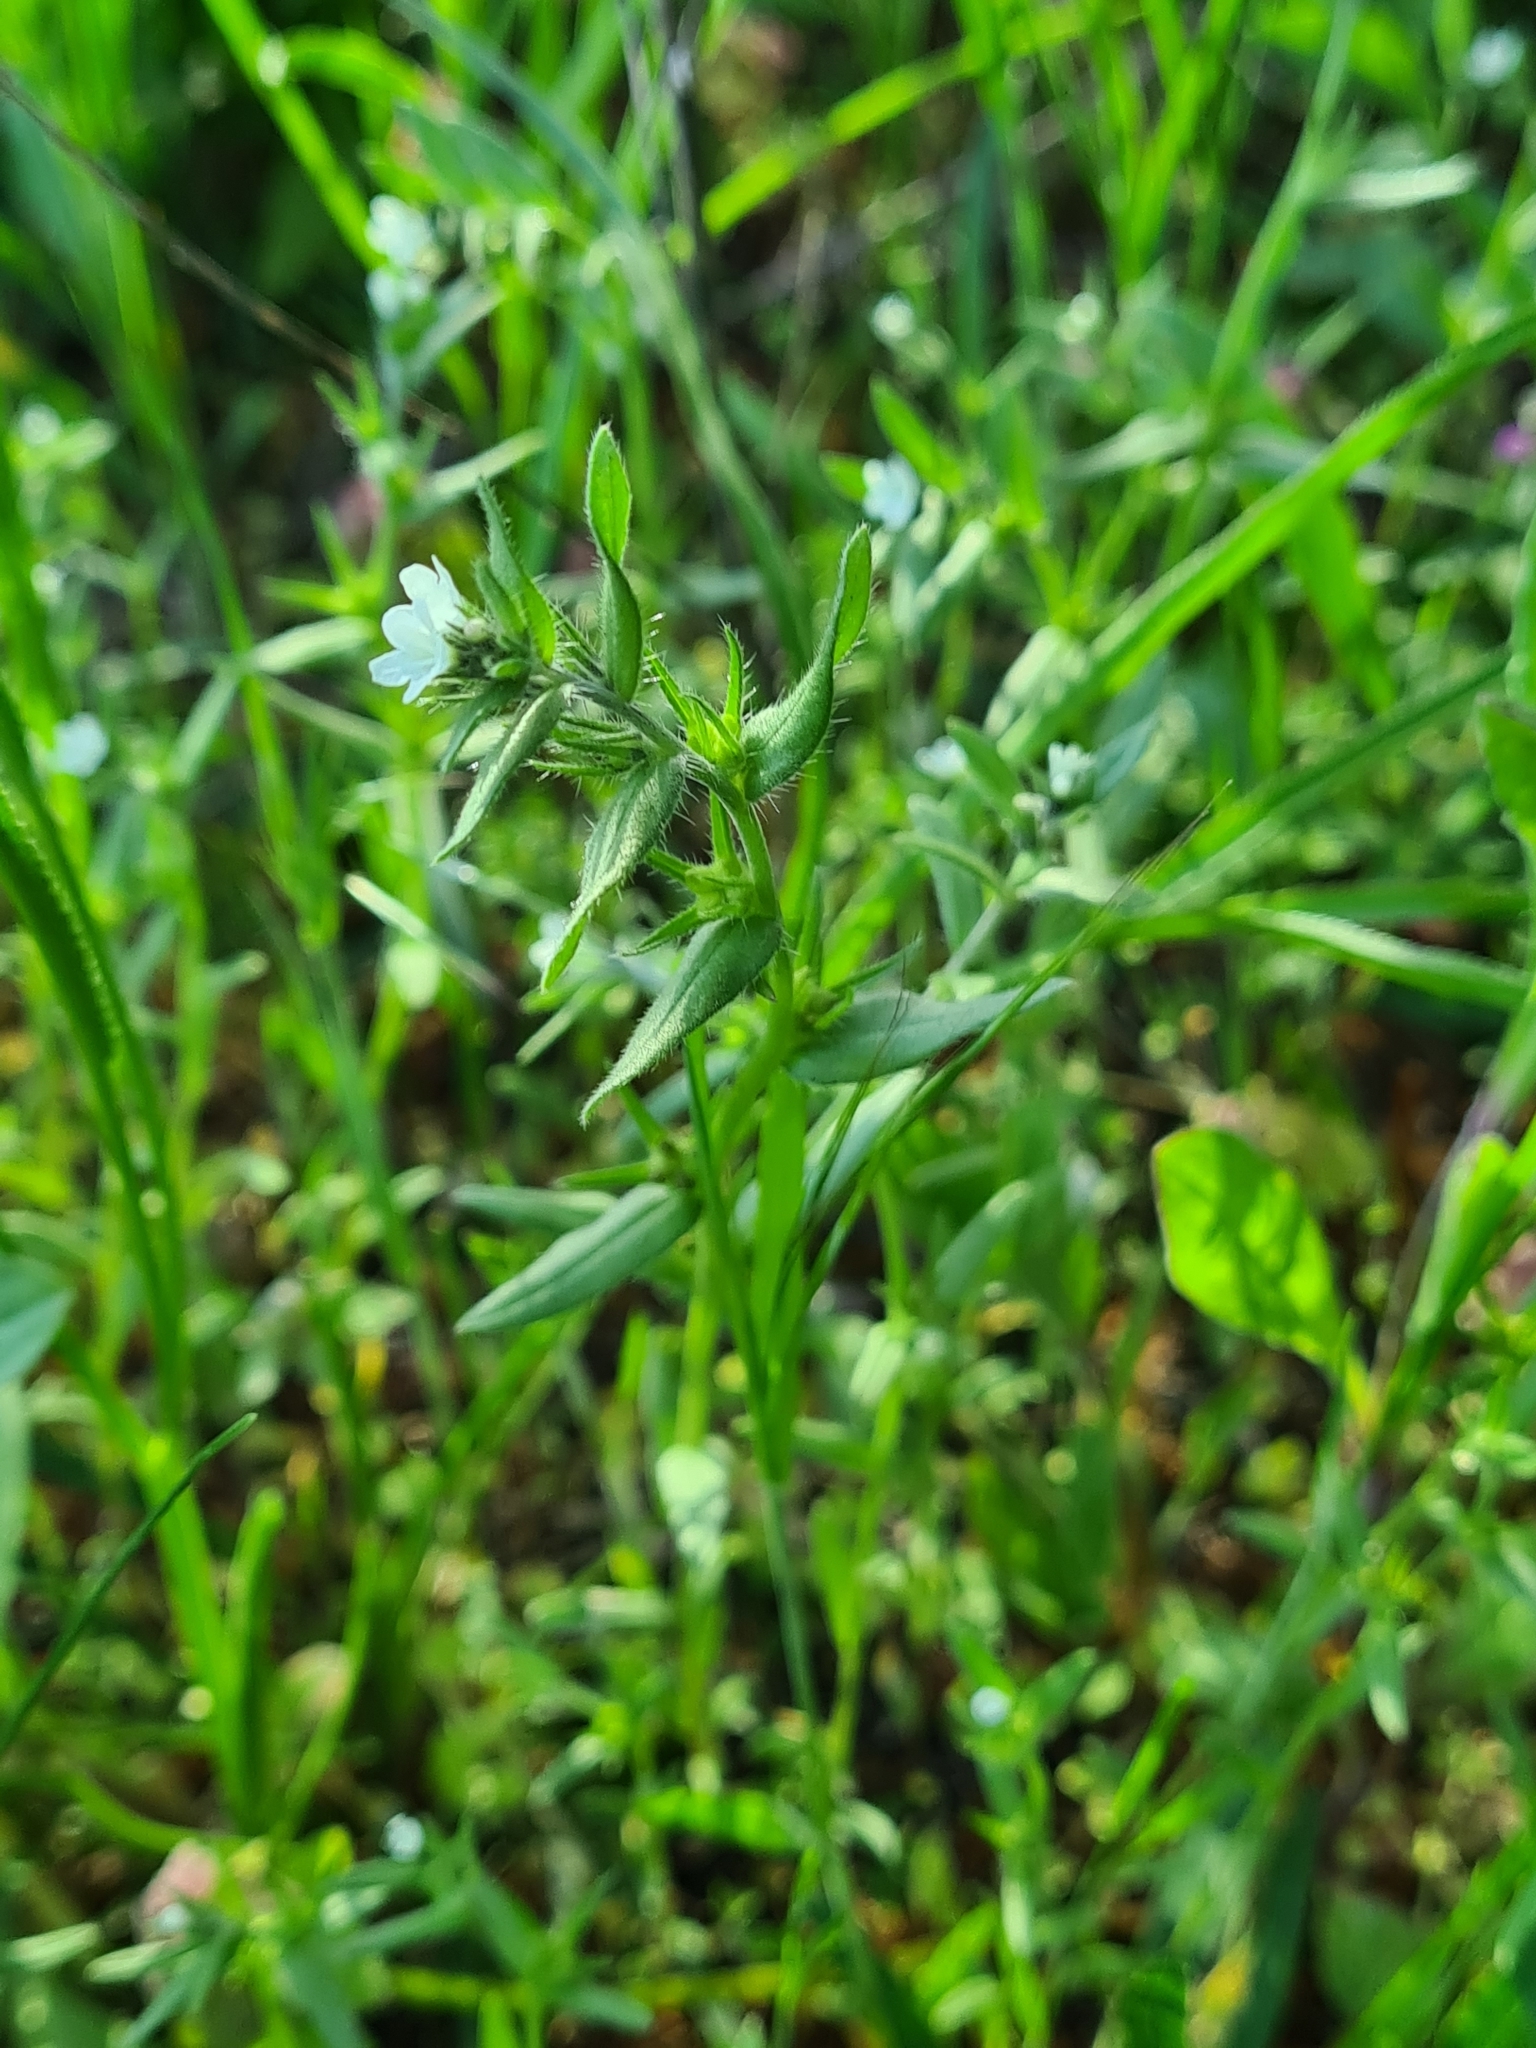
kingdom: Plantae
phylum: Tracheophyta
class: Magnoliopsida
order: Boraginales
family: Boraginaceae
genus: Buglossoides
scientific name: Buglossoides incrassata
